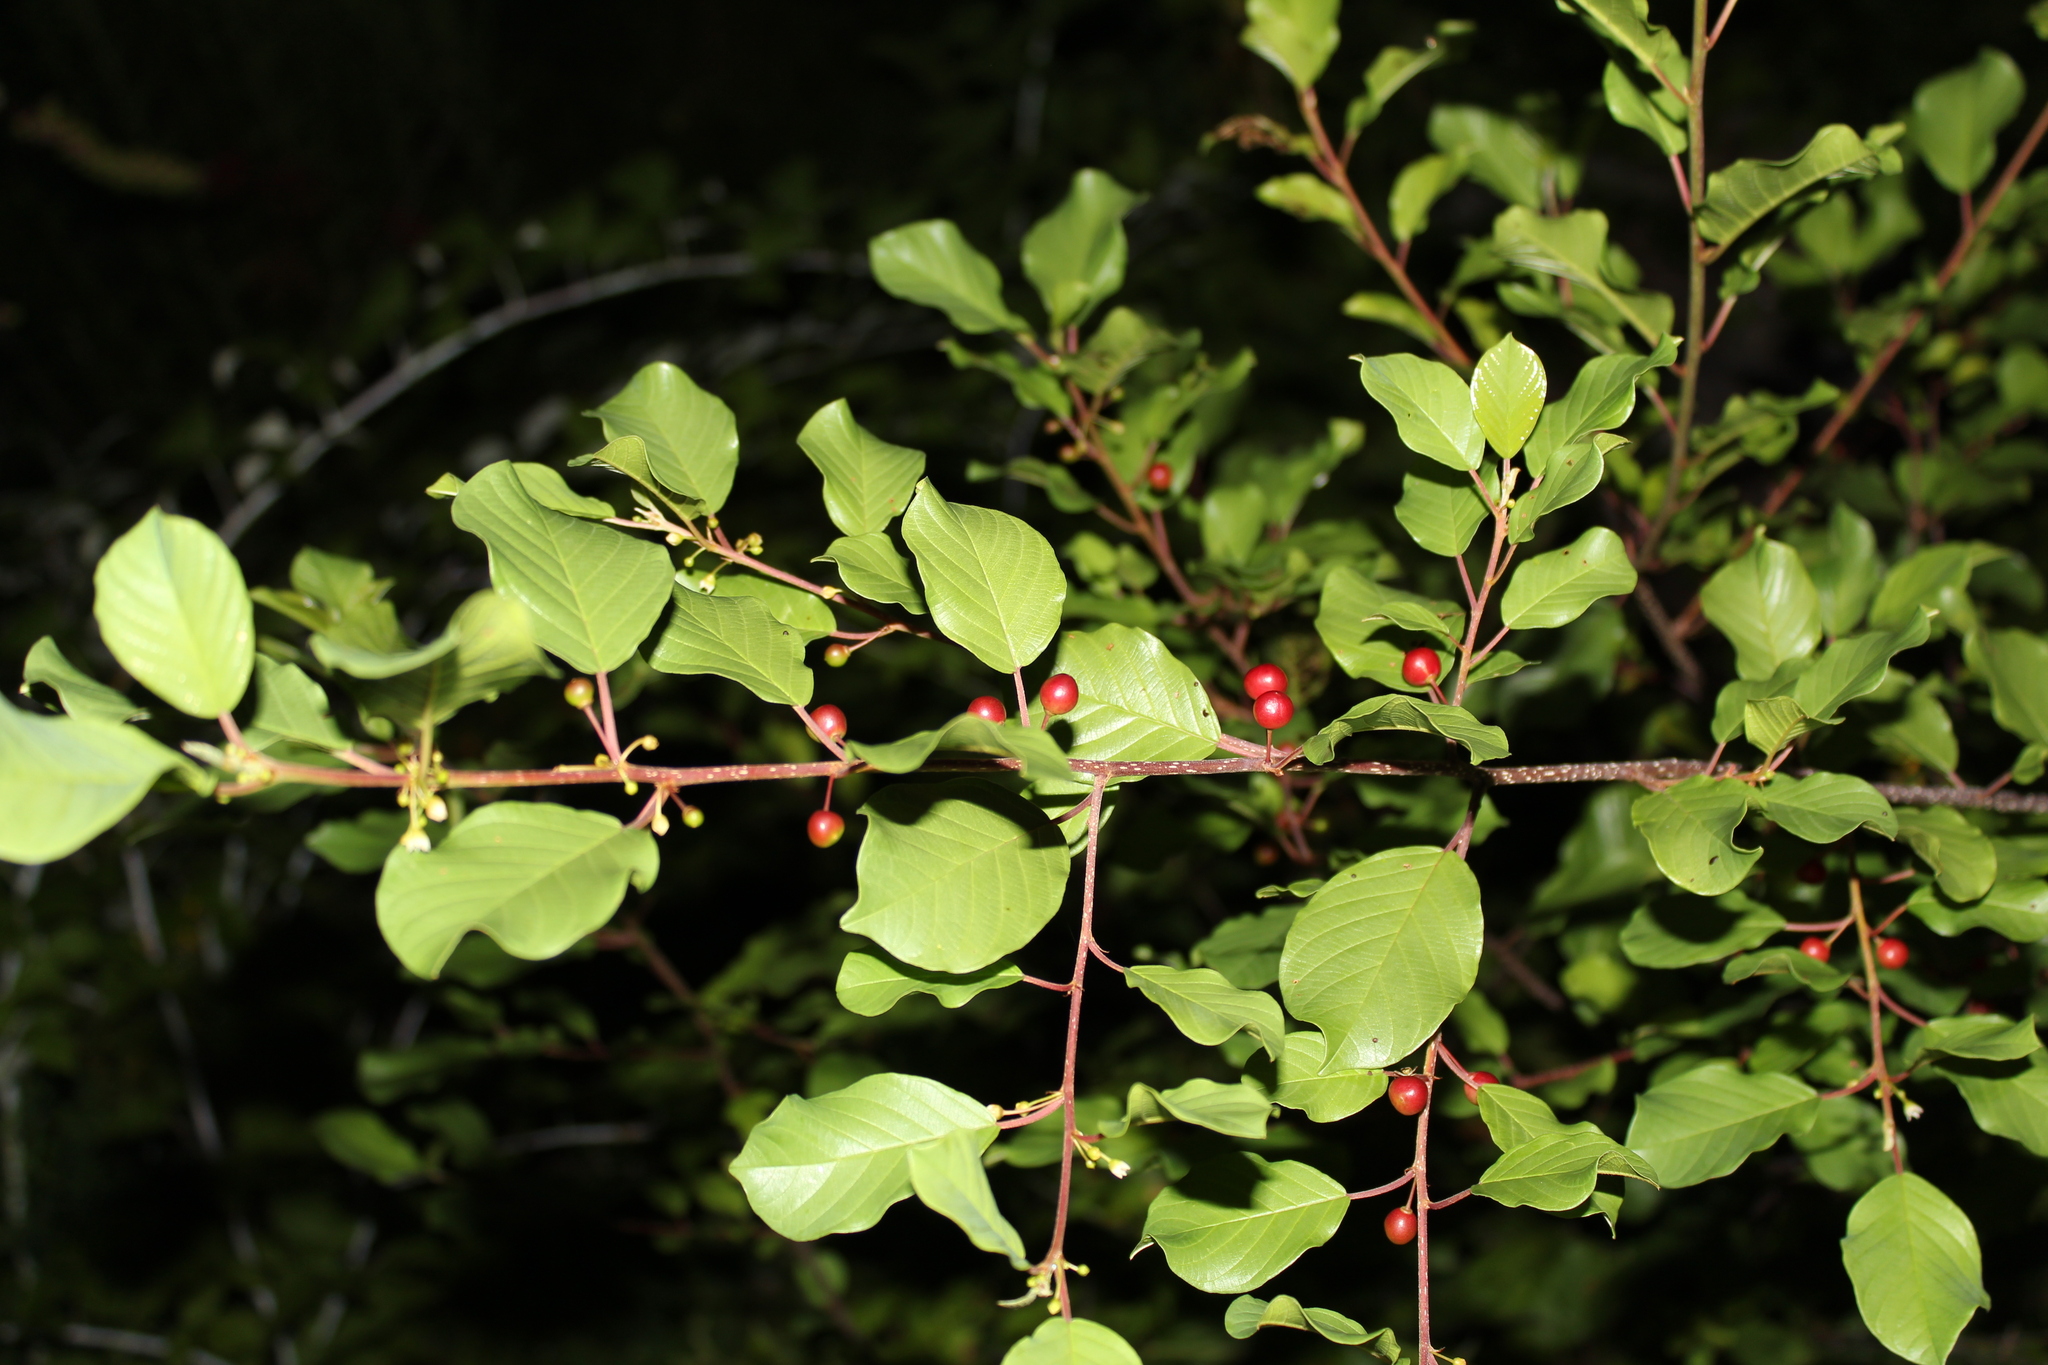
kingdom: Plantae
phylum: Tracheophyta
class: Magnoliopsida
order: Rosales
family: Rhamnaceae
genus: Frangula
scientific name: Frangula alnus
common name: Alder buckthorn
